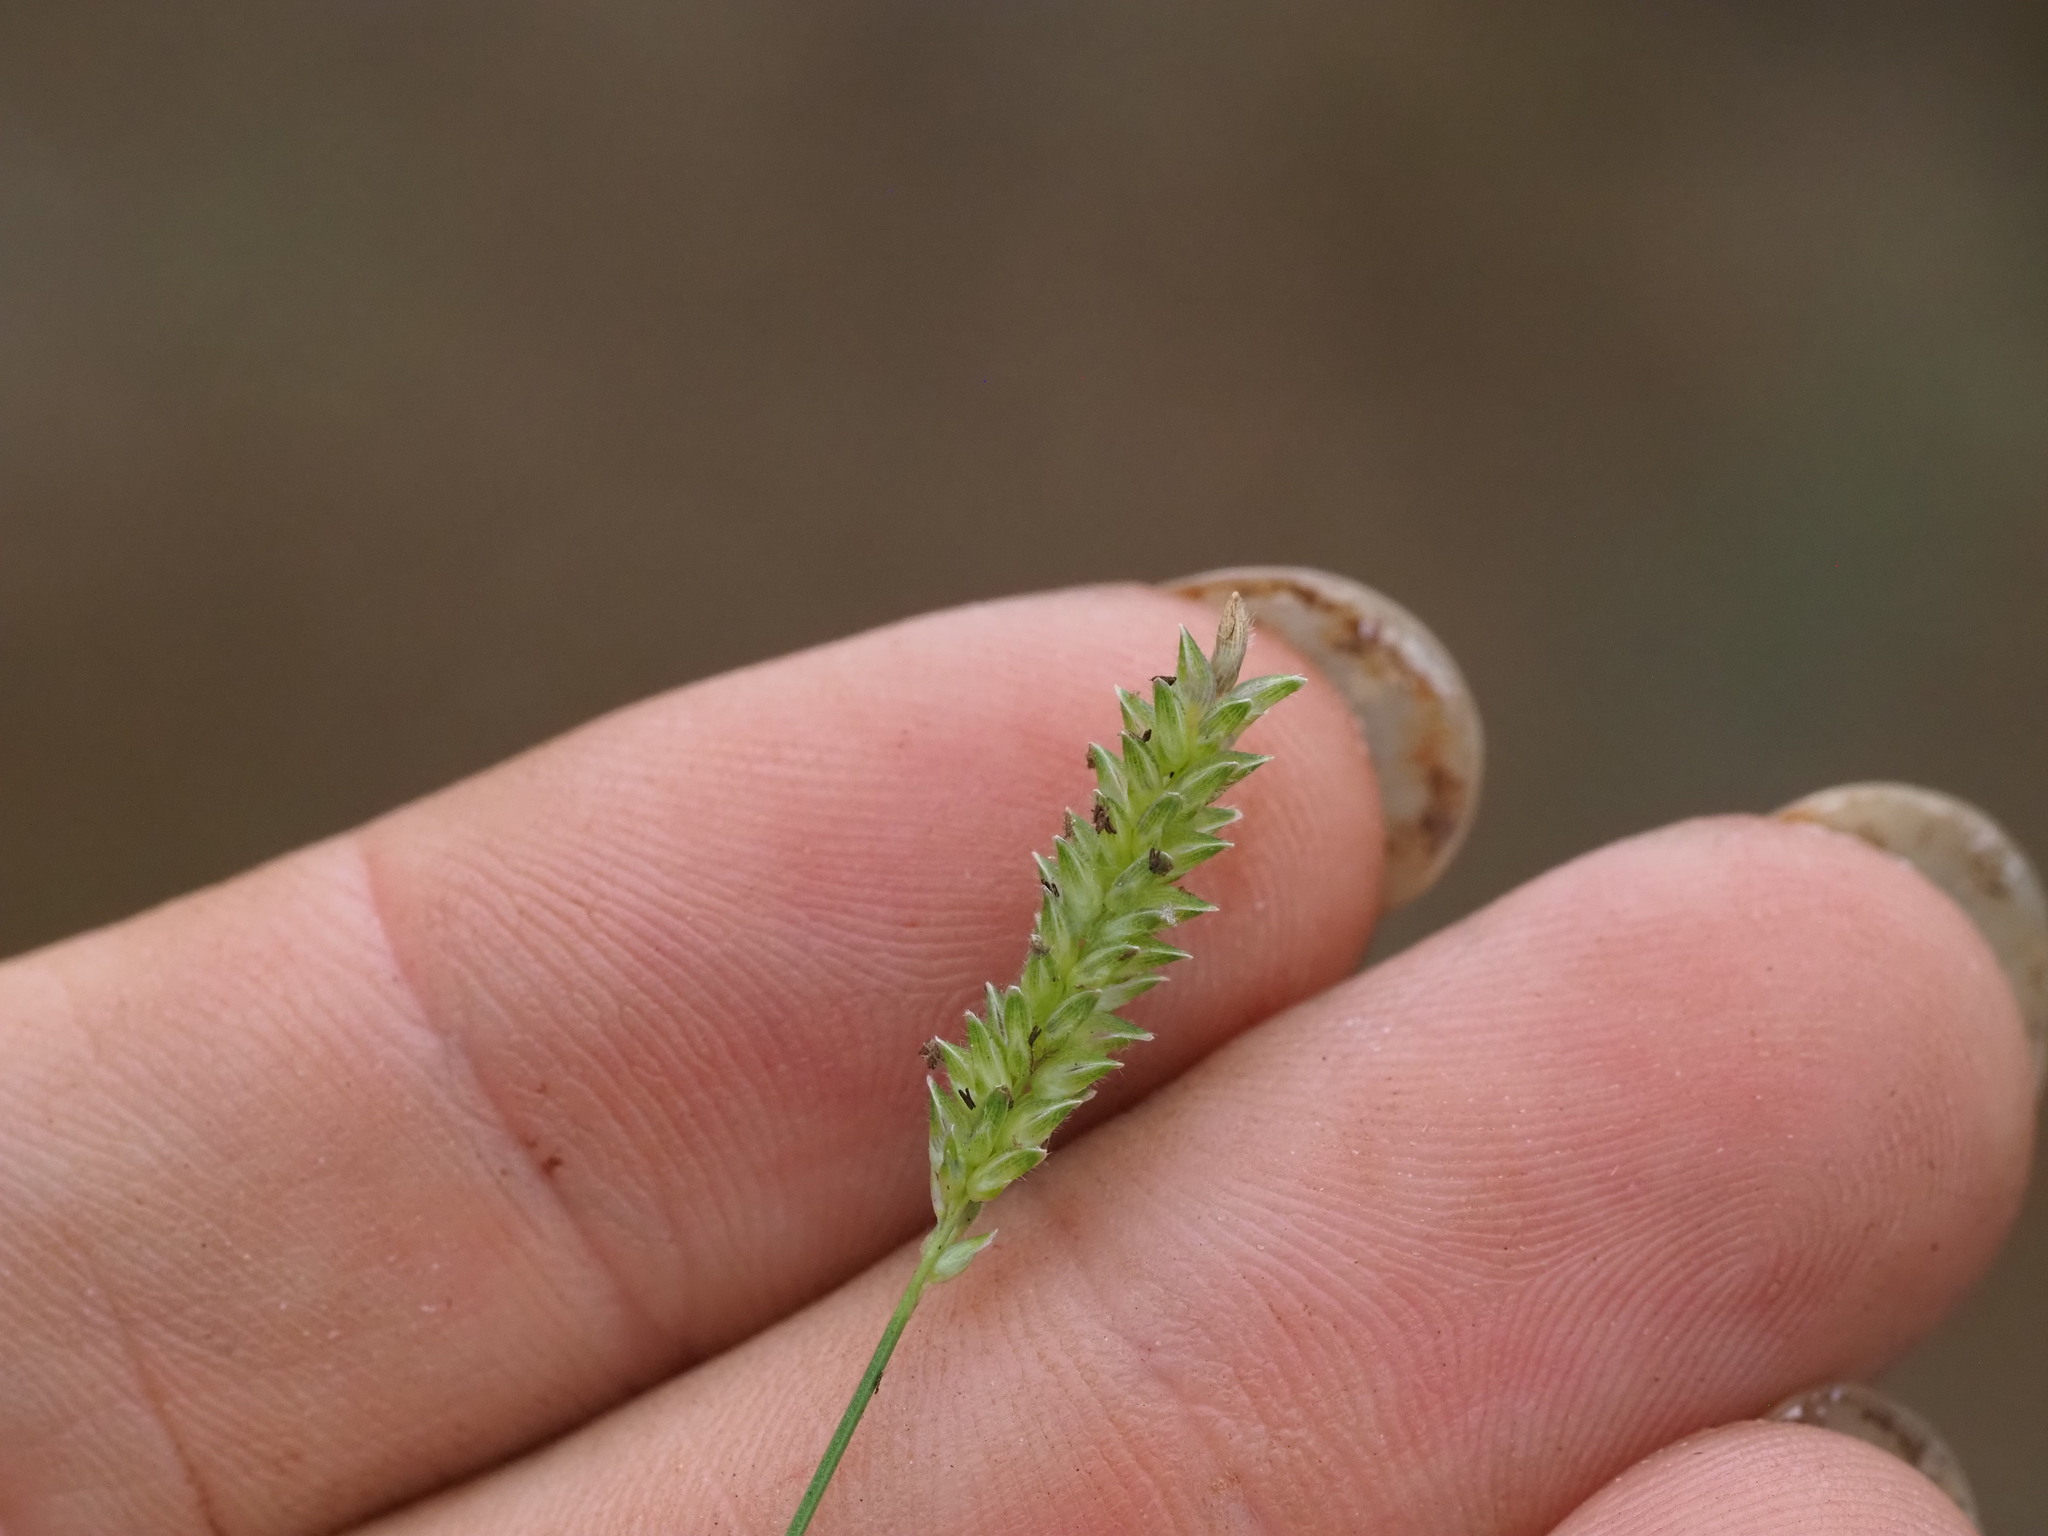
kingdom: Plantae
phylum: Tracheophyta
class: Liliopsida
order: Poales
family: Poaceae
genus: Sacciolepis
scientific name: Sacciolepis indica
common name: Glenwoodgrass
